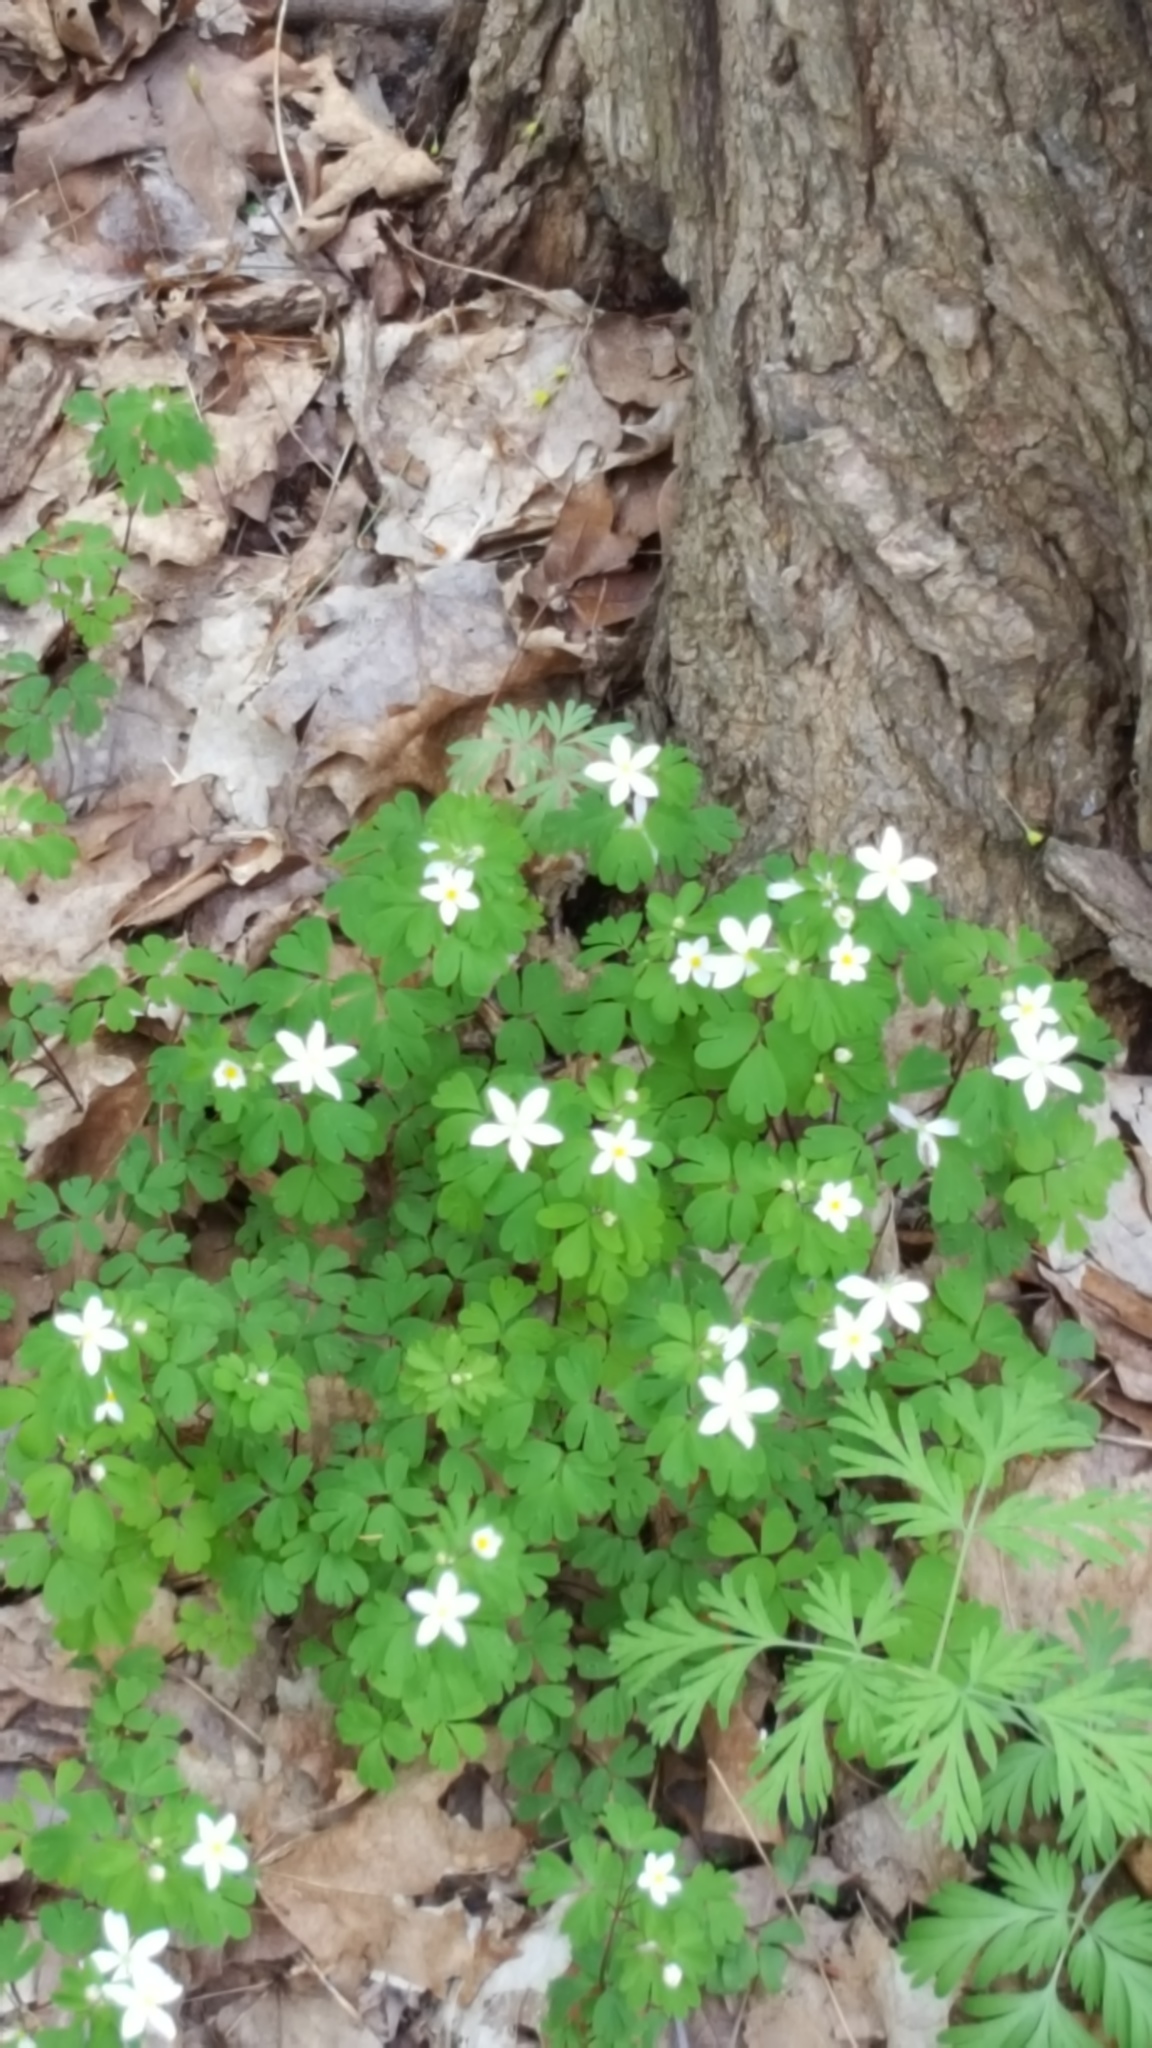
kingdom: Plantae
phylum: Tracheophyta
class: Magnoliopsida
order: Ranunculales
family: Ranunculaceae
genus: Enemion
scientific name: Enemion biternatum
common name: Eastern false rue-anemone
